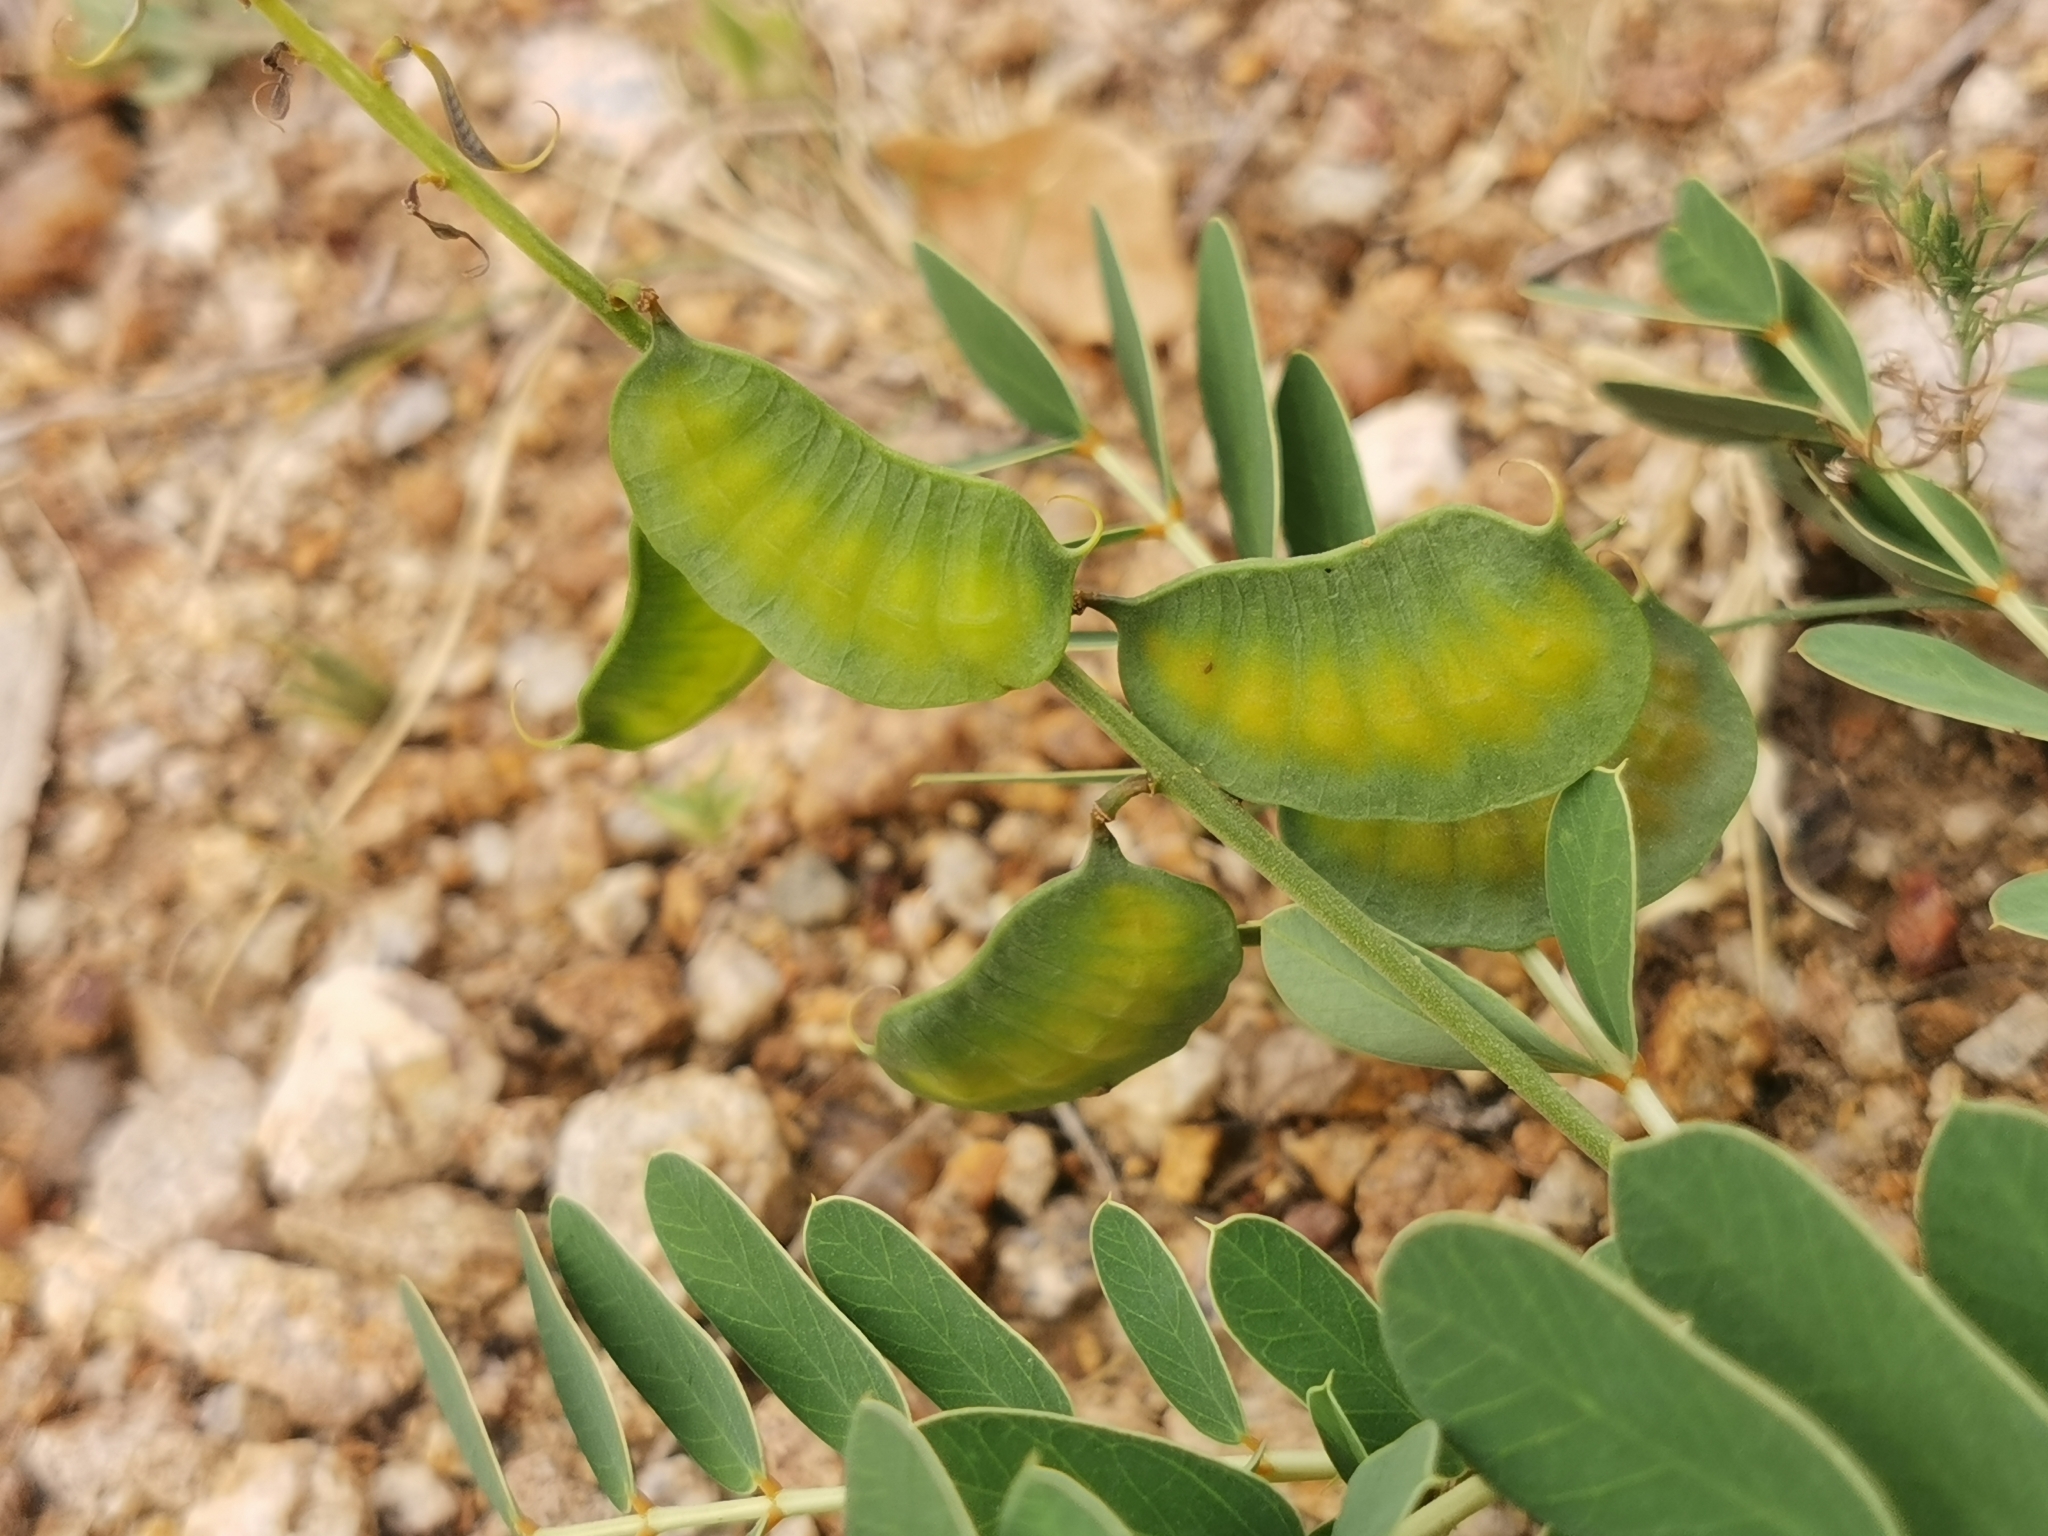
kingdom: Plantae
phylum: Tracheophyta
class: Magnoliopsida
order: Fabales
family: Fabaceae
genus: Senna
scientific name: Senna italica
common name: Port royal senna
